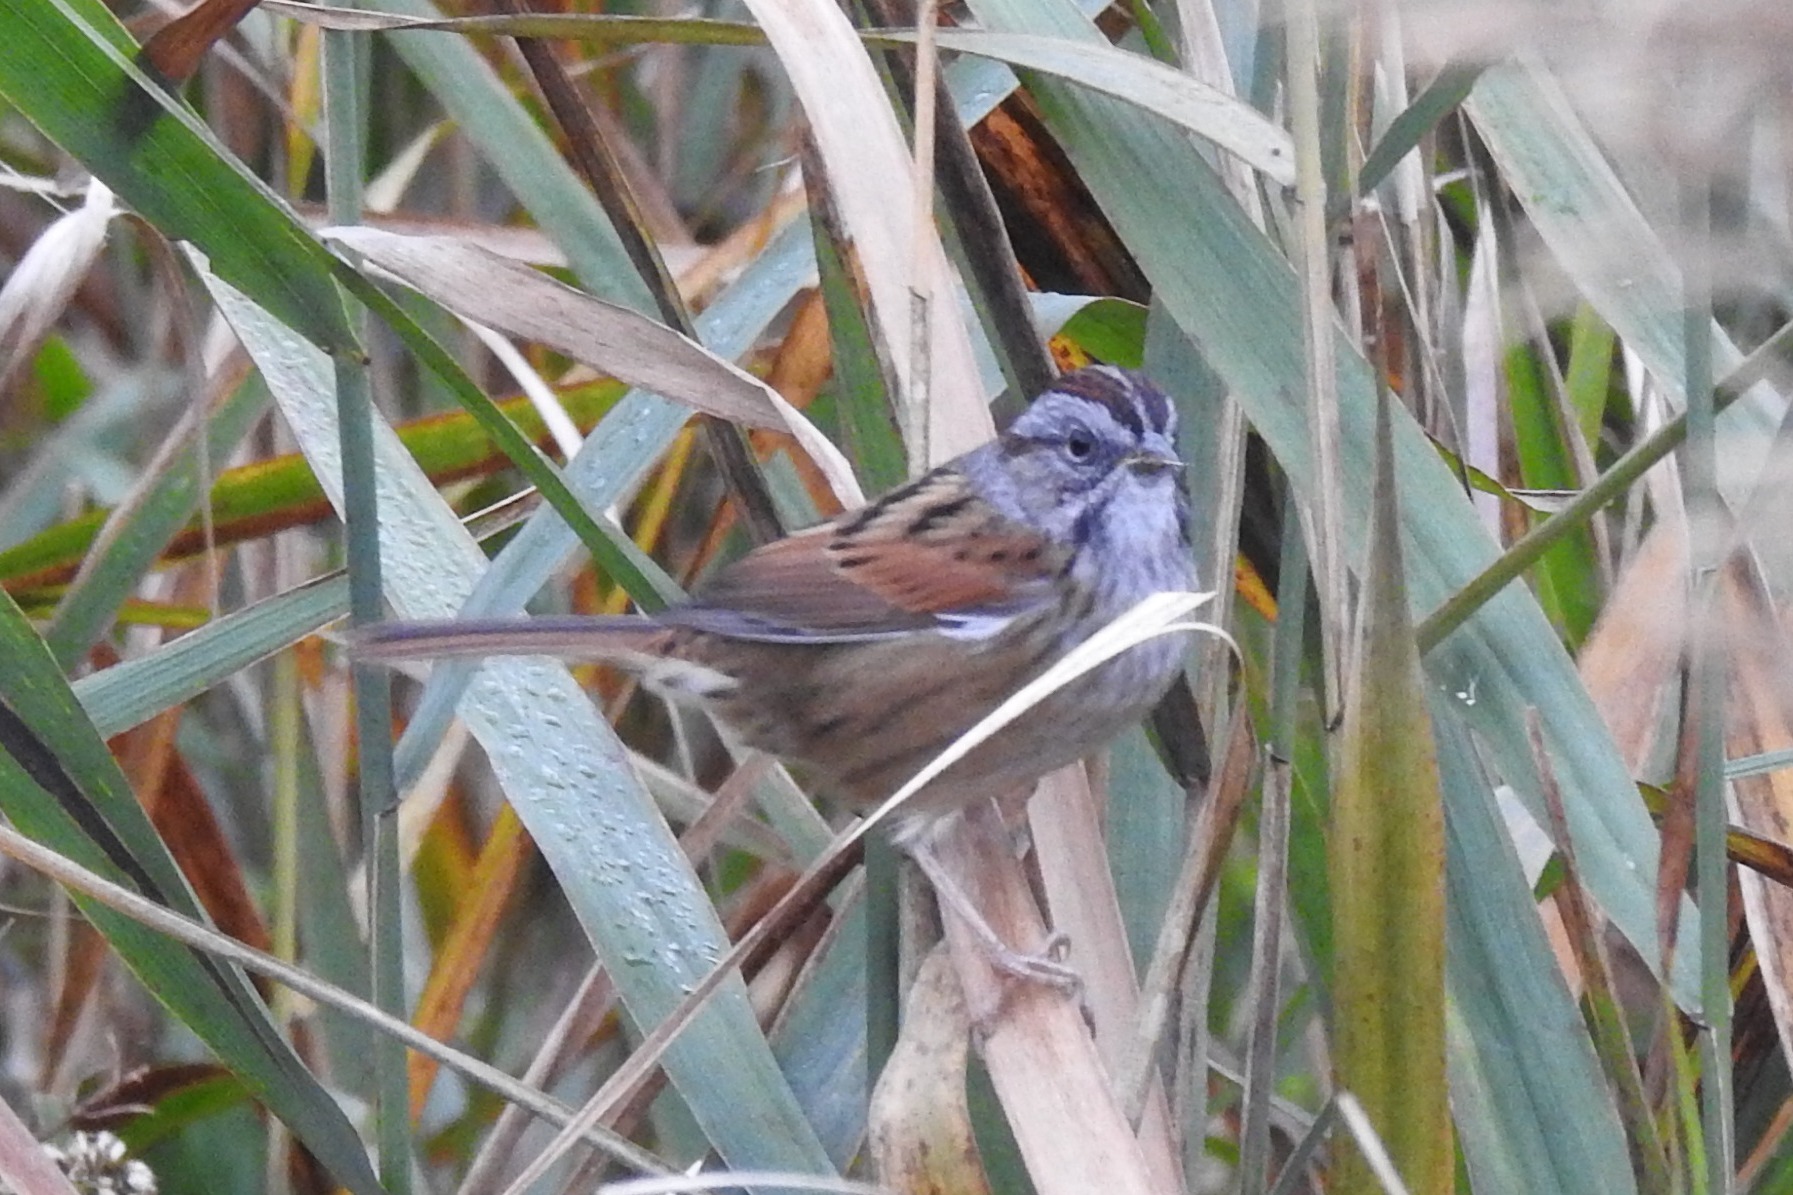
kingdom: Animalia
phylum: Chordata
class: Aves
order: Passeriformes
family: Passerellidae
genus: Melospiza
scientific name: Melospiza georgiana
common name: Swamp sparrow
